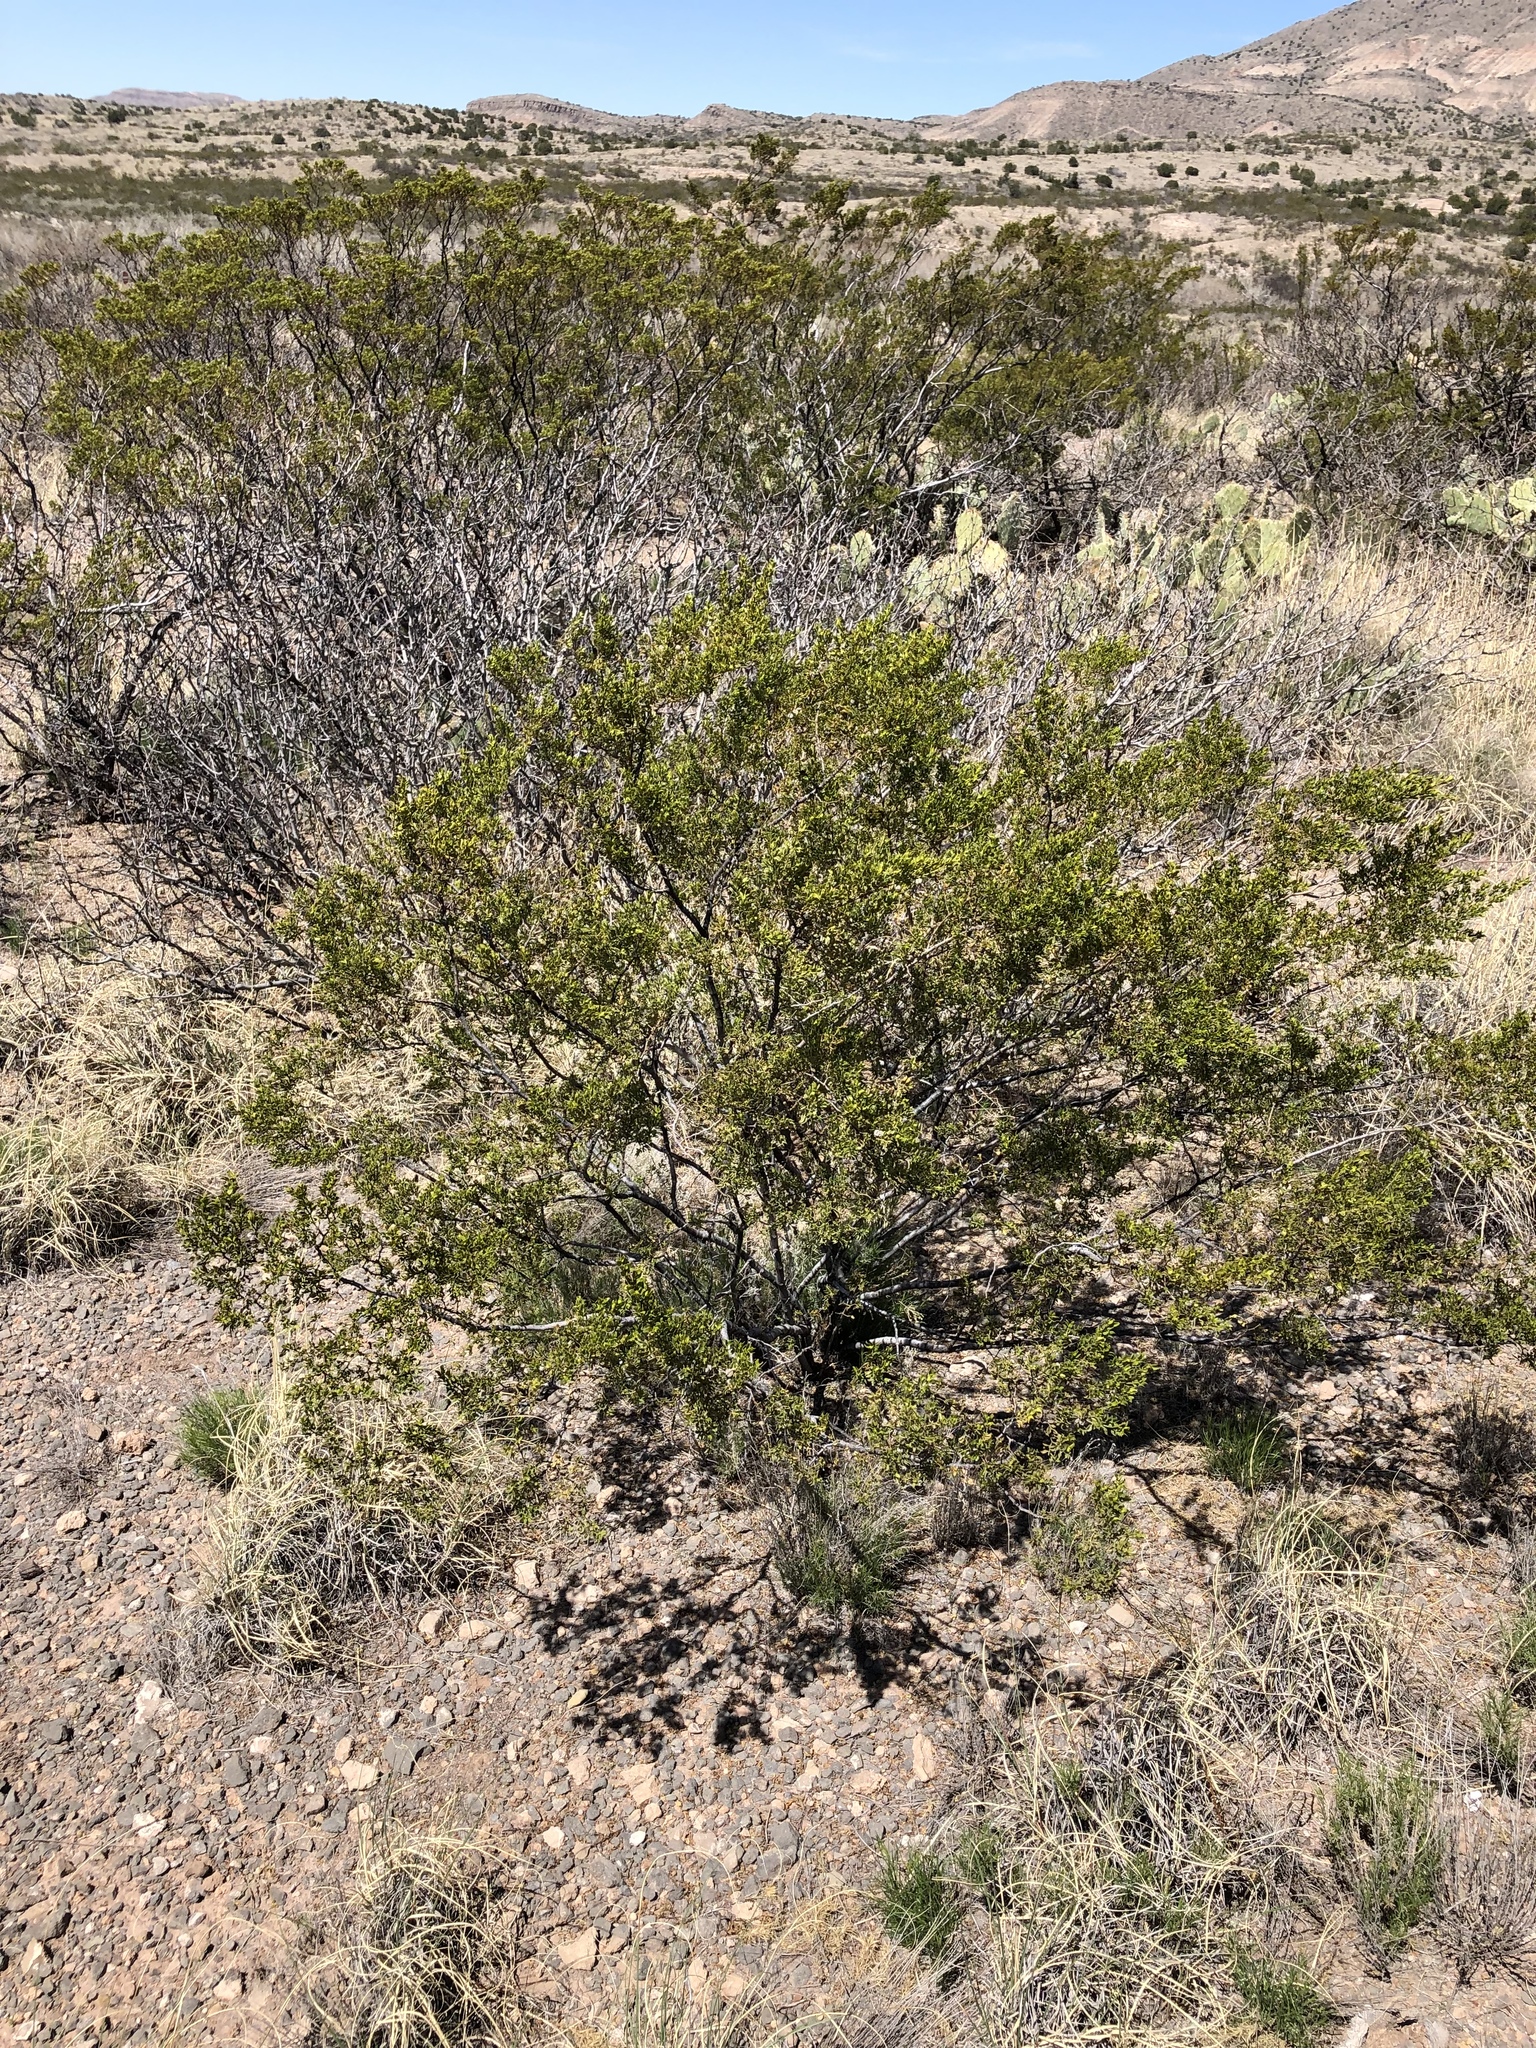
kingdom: Plantae
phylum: Tracheophyta
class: Magnoliopsida
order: Zygophyllales
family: Zygophyllaceae
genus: Larrea
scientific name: Larrea tridentata
